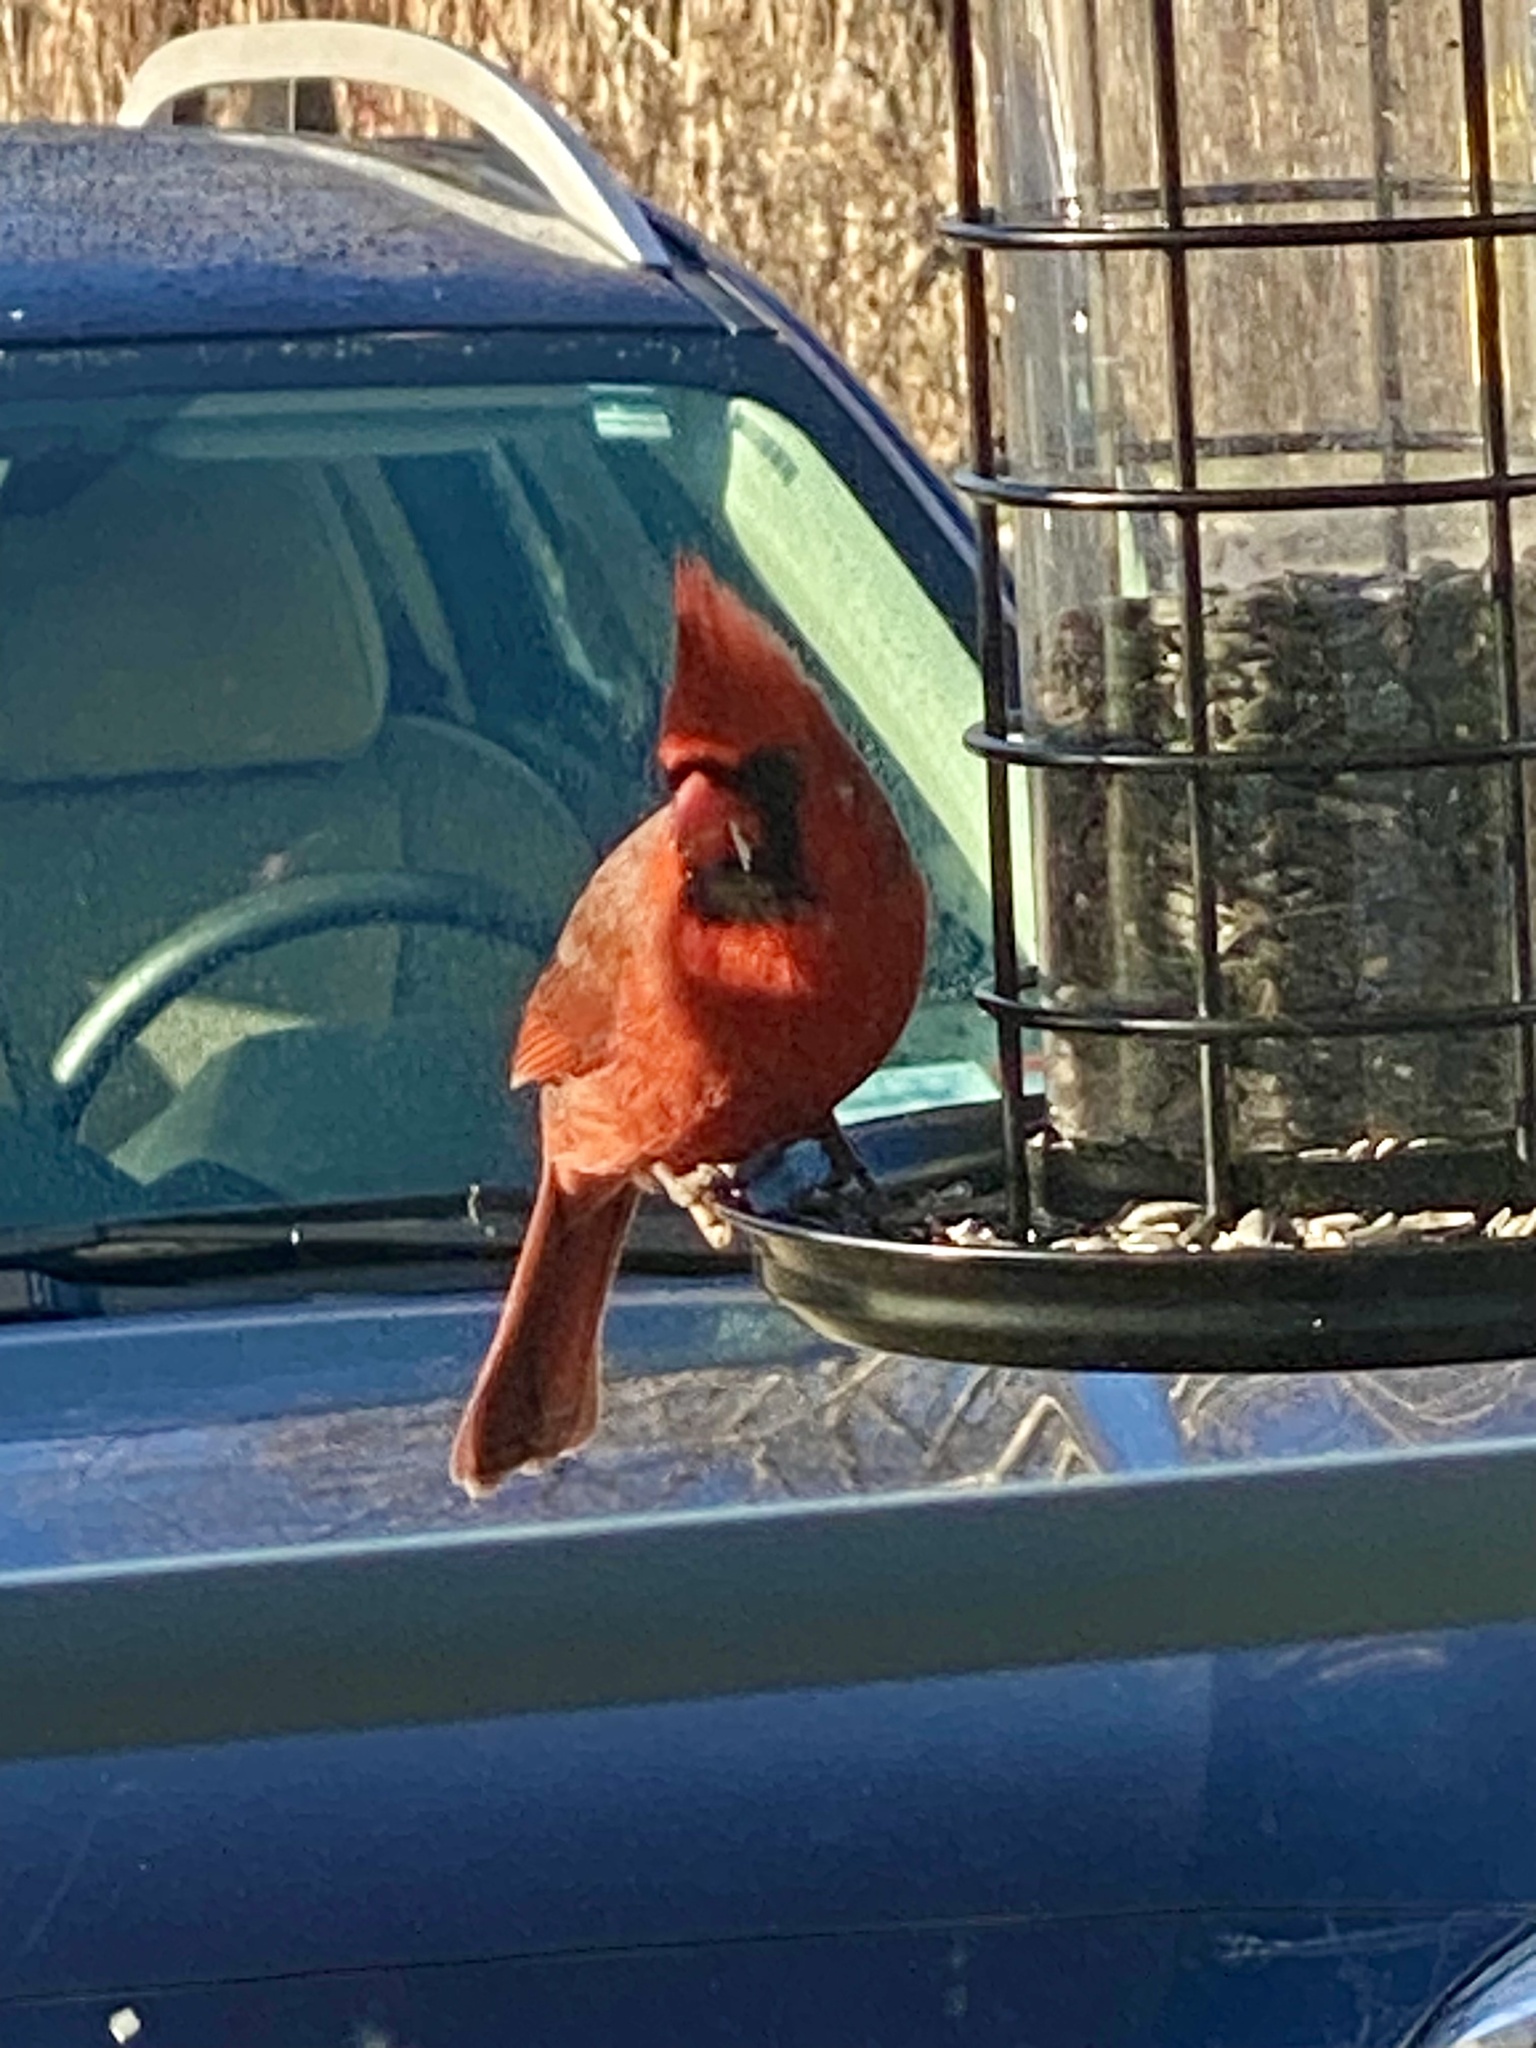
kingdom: Animalia
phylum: Chordata
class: Aves
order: Passeriformes
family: Cardinalidae
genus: Cardinalis
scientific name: Cardinalis cardinalis
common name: Northern cardinal
